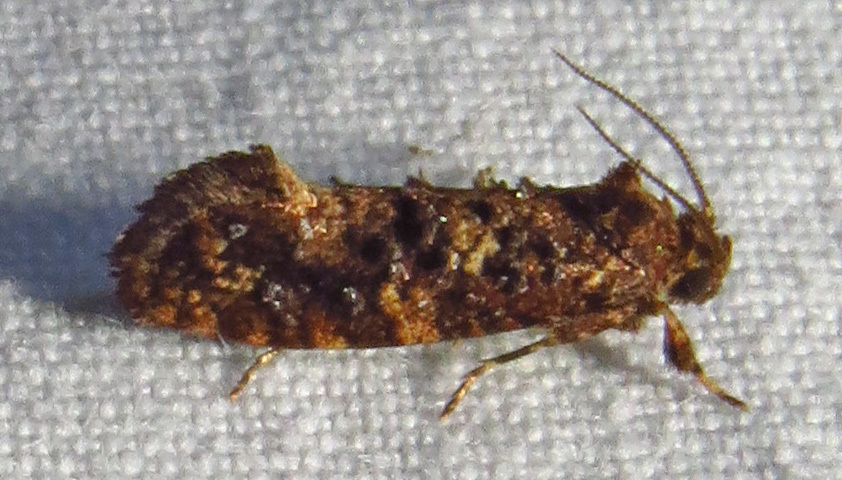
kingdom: Animalia
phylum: Arthropoda
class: Insecta
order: Lepidoptera
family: Tineidae
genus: Acrolophus
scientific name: Acrolophus cressoni
